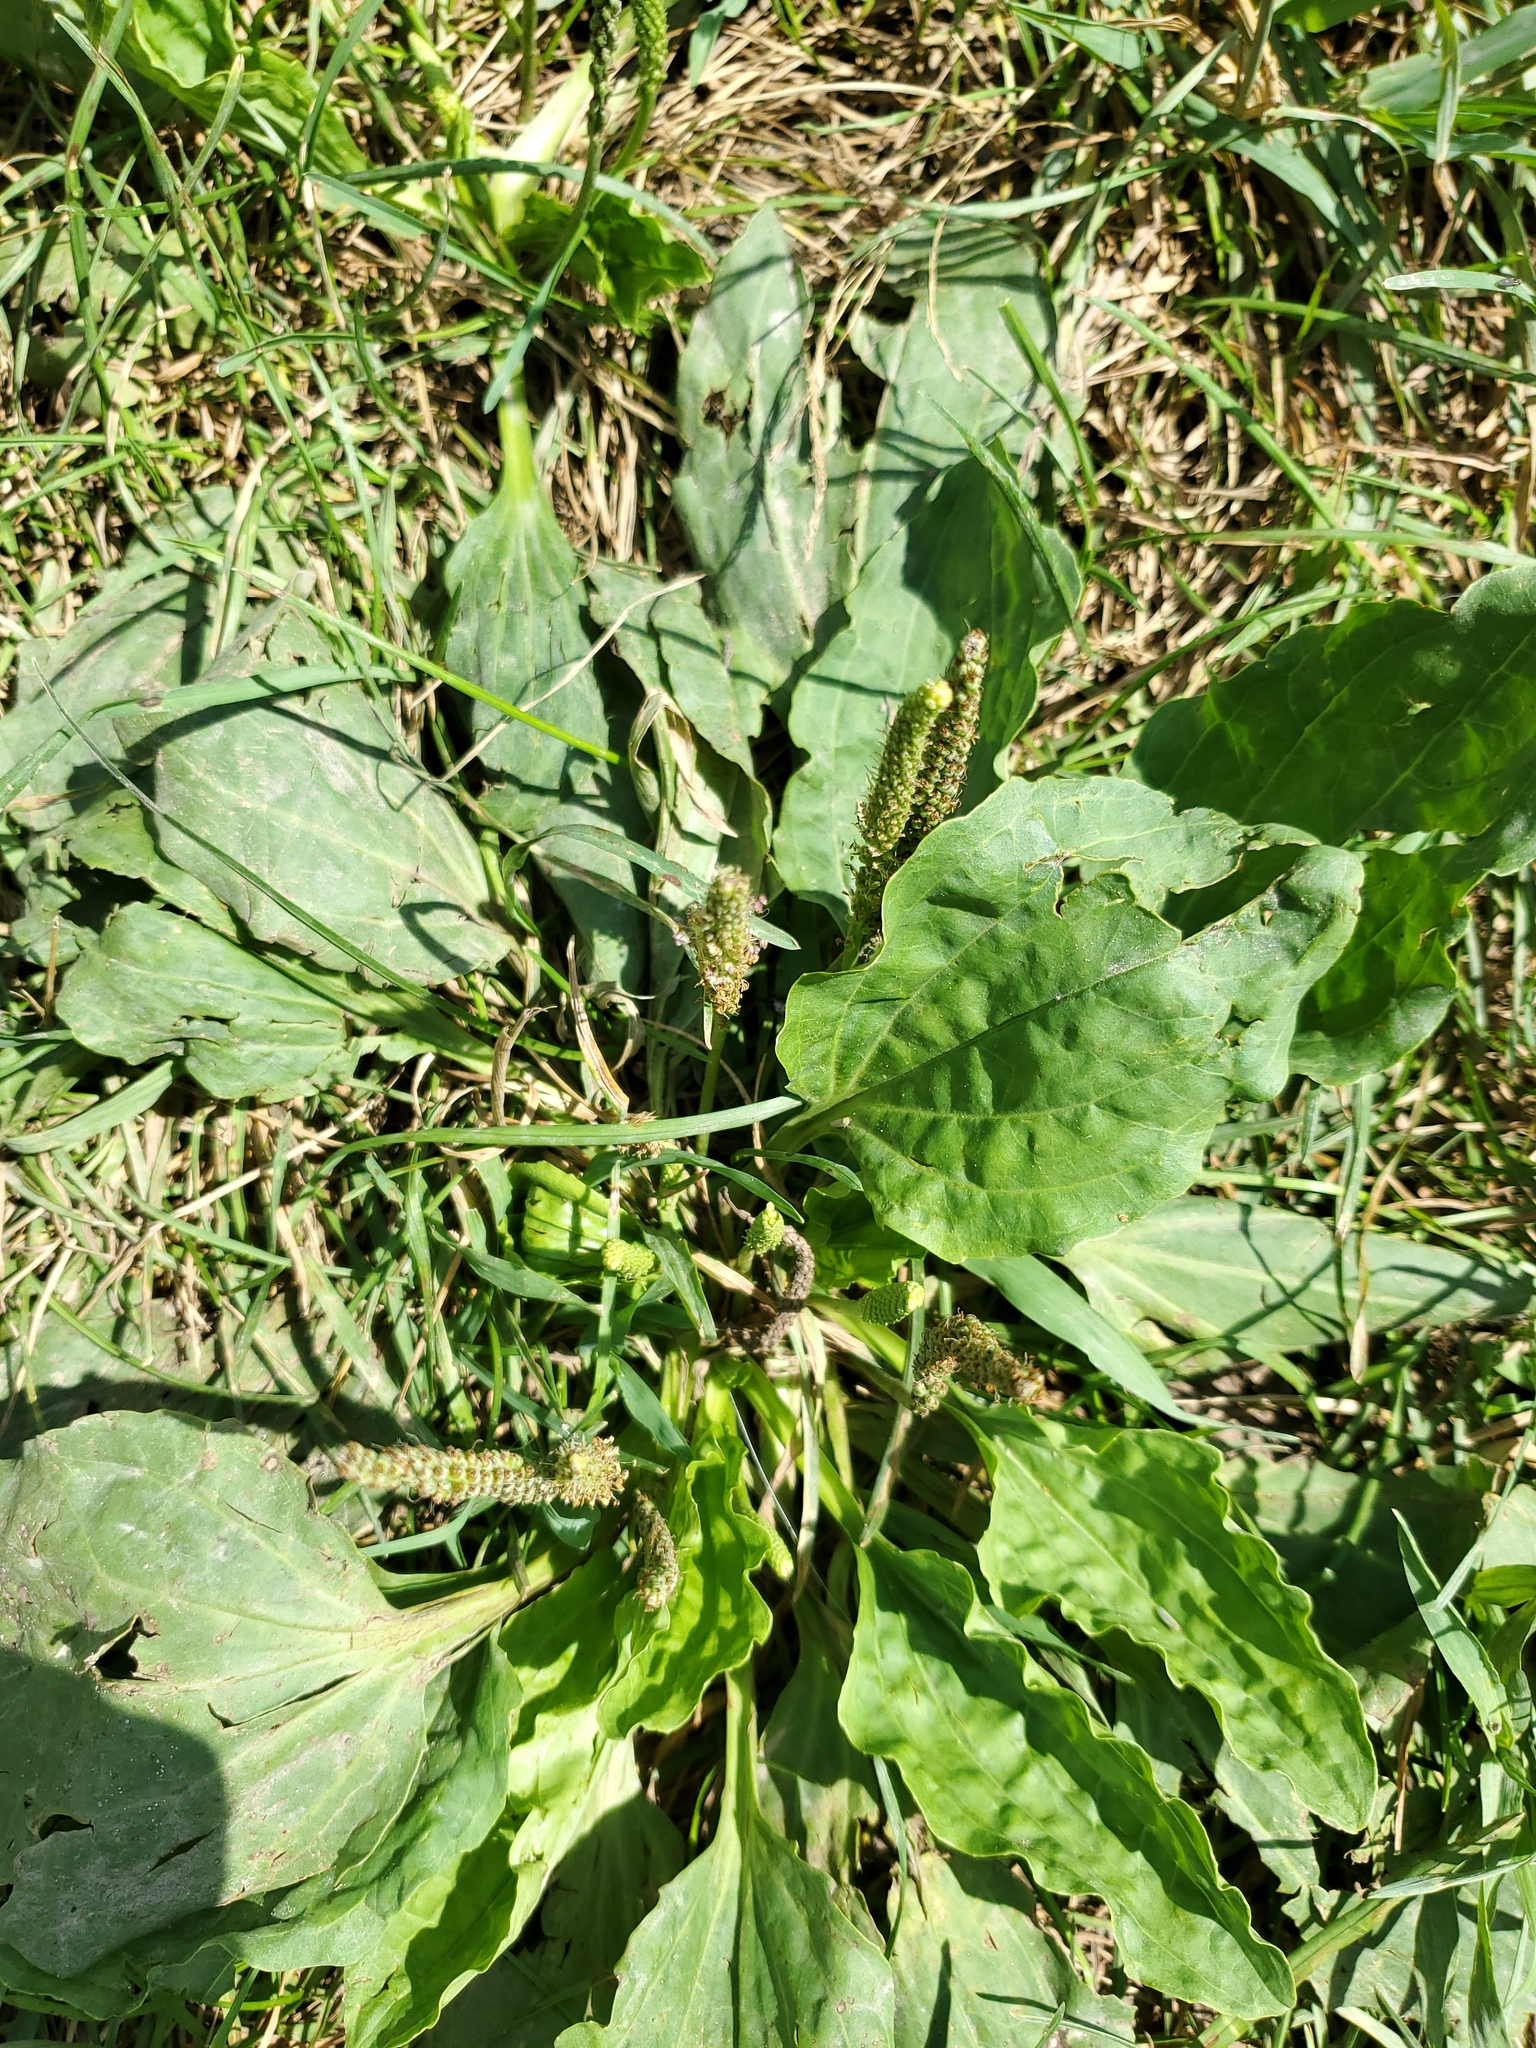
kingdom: Plantae
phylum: Tracheophyta
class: Magnoliopsida
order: Lamiales
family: Plantaginaceae
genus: Plantago
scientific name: Plantago major
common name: Common plantain
